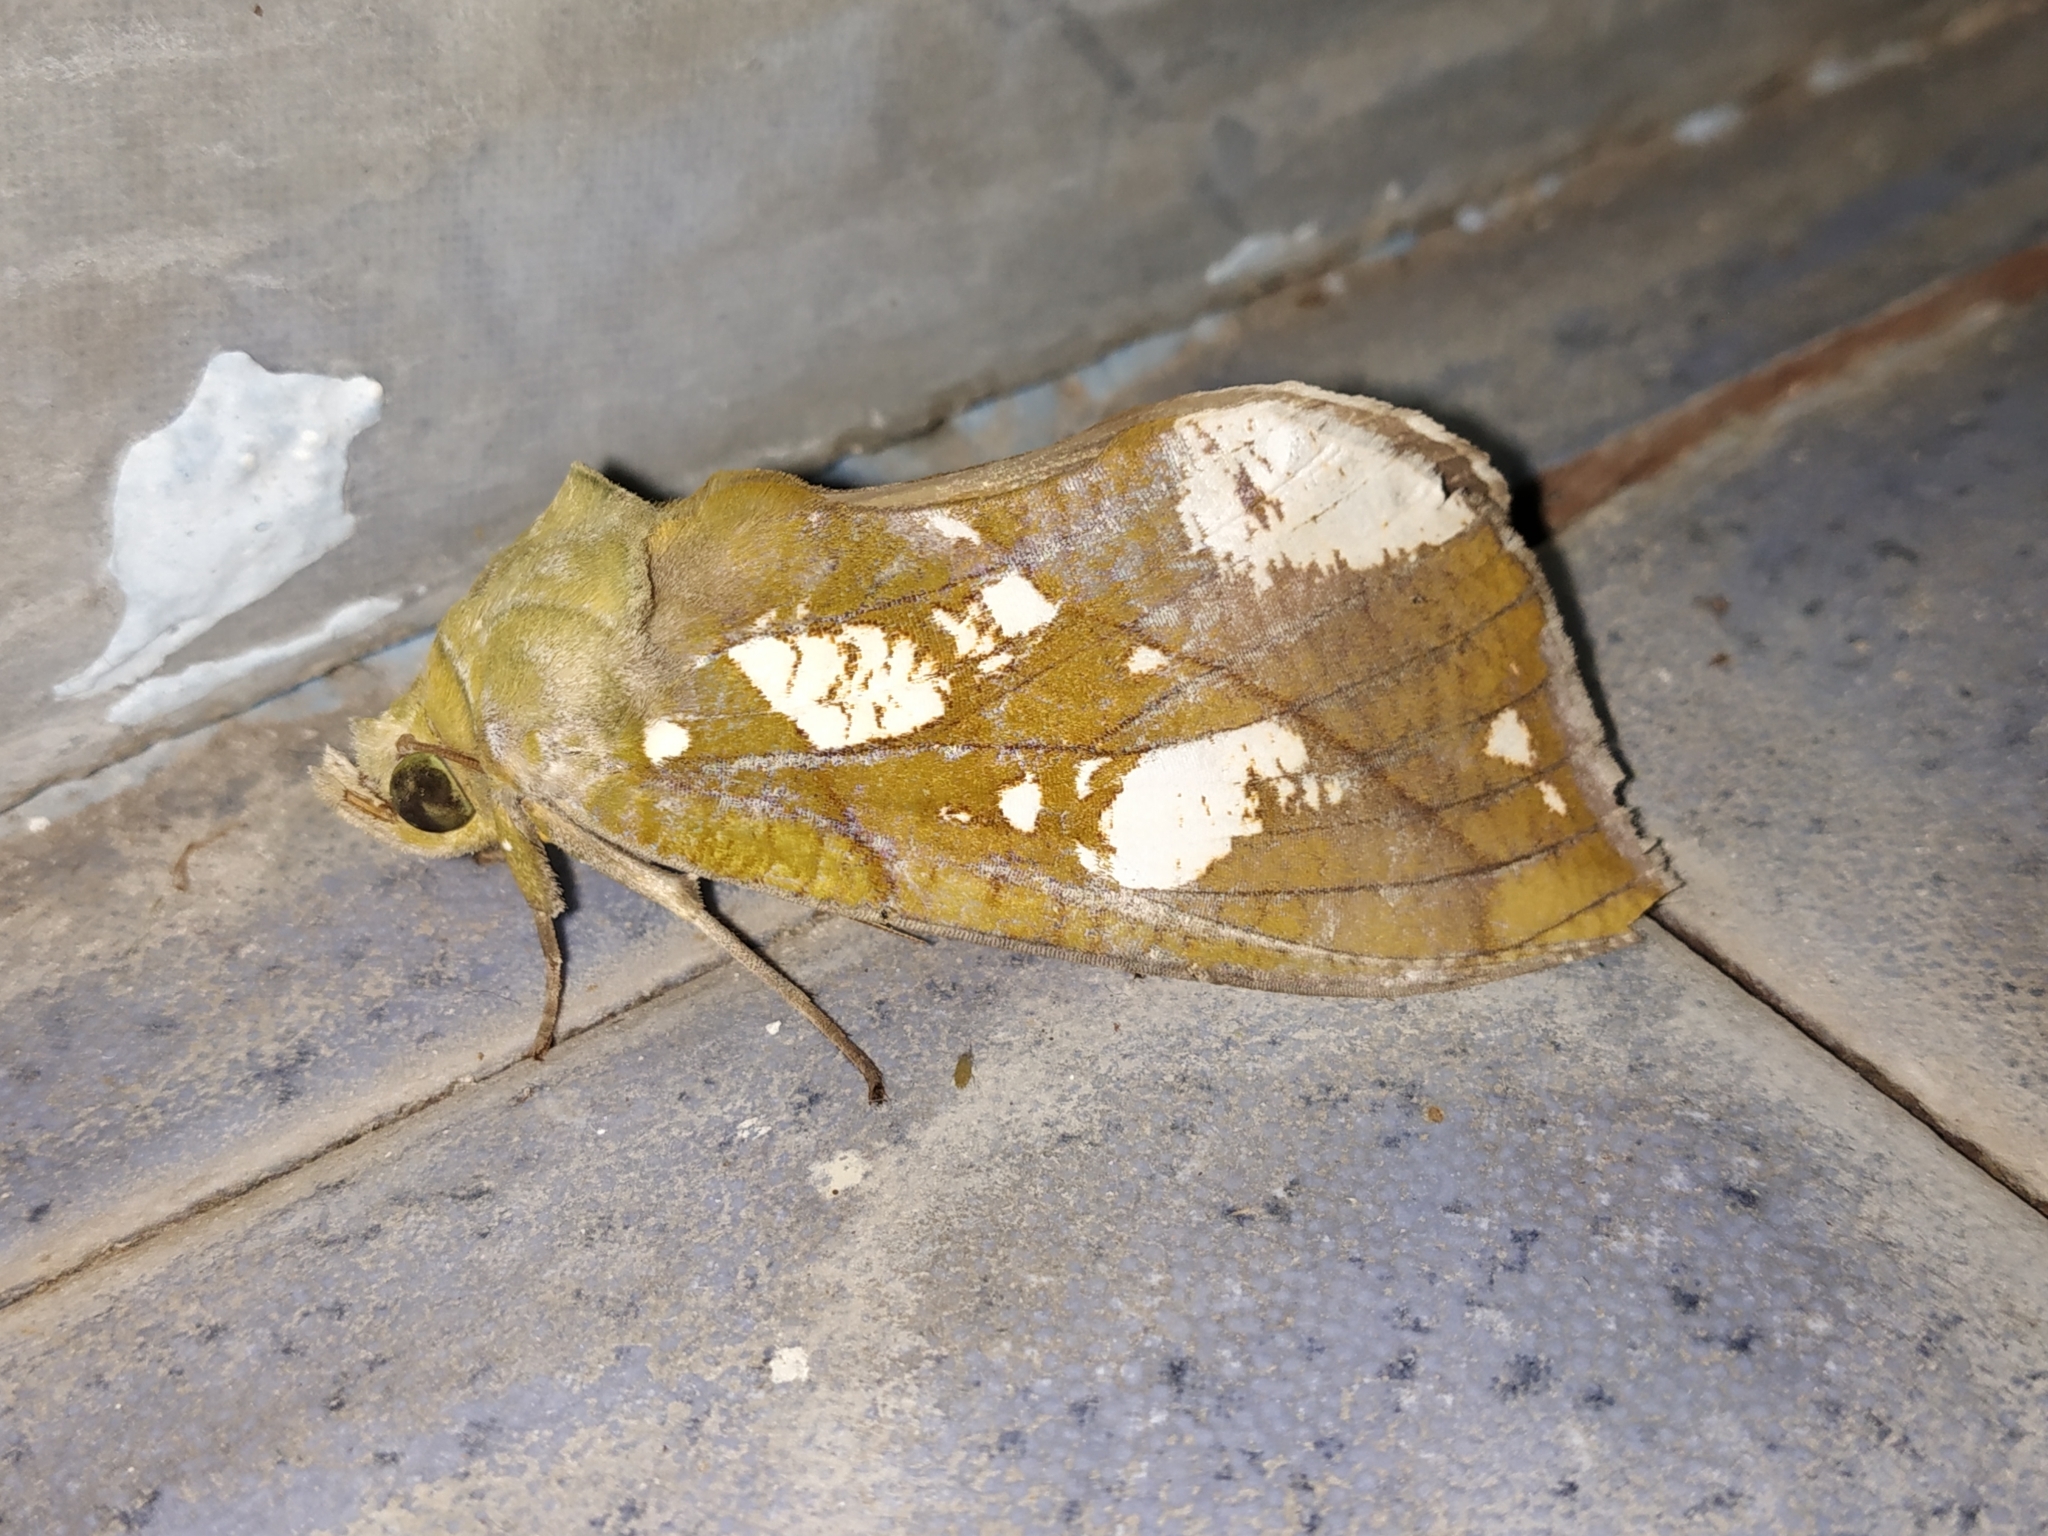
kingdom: Animalia
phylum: Arthropoda
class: Insecta
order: Lepidoptera
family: Erebidae
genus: Eudocima
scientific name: Eudocima hypermnestra
